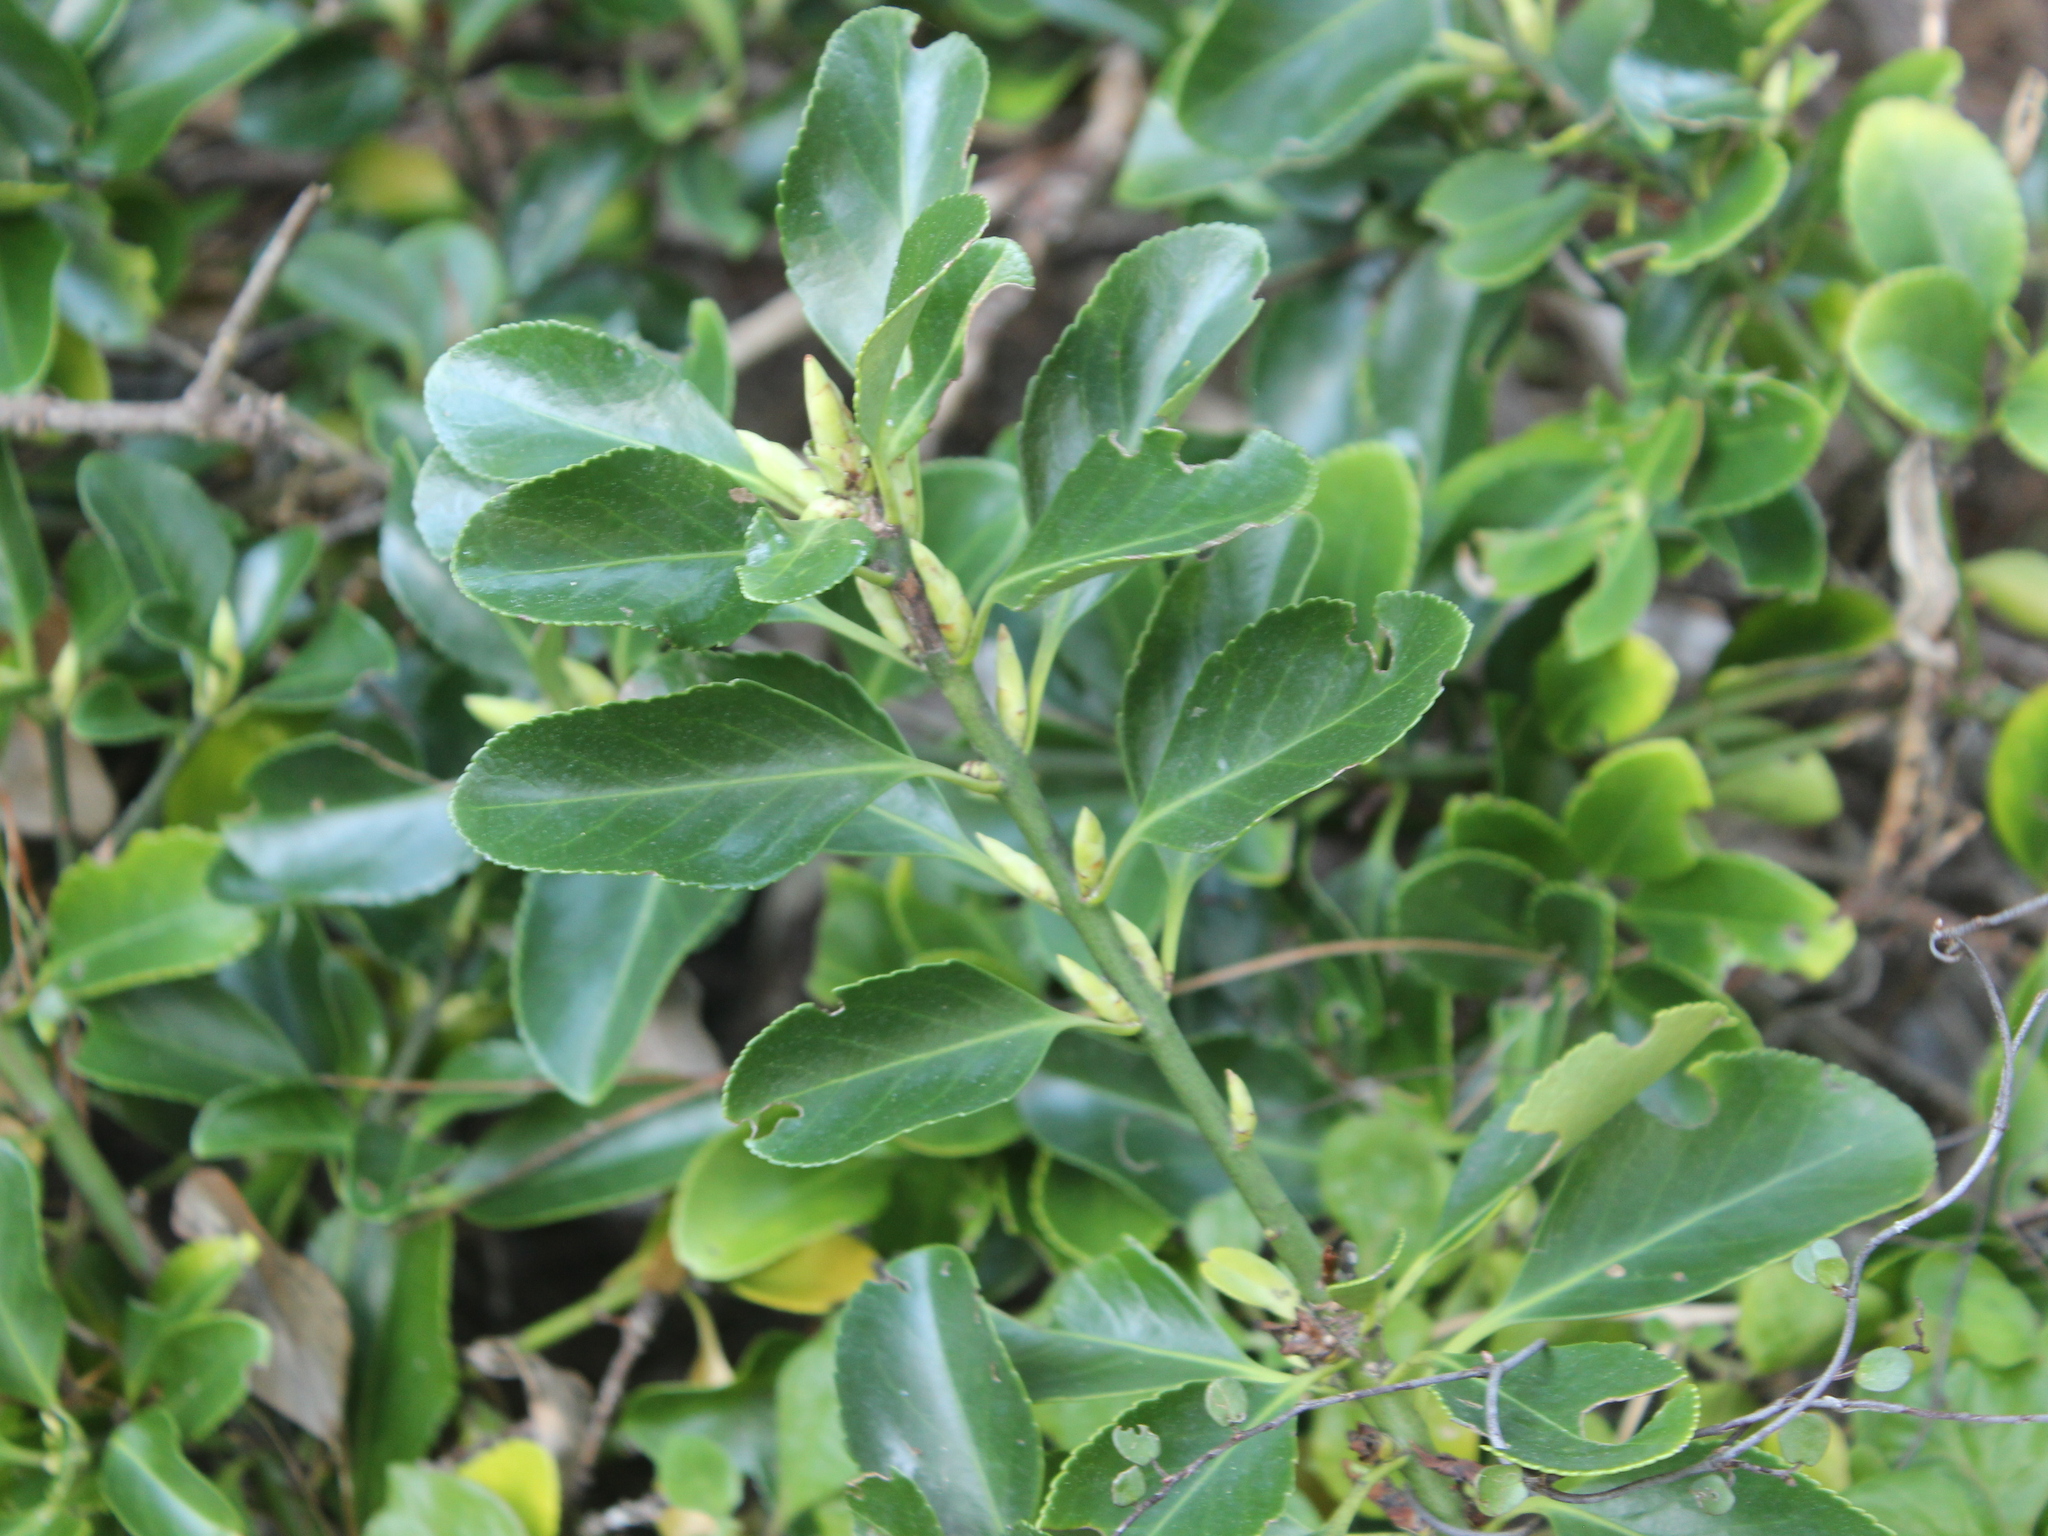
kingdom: Plantae
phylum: Tracheophyta
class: Magnoliopsida
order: Celastrales
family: Celastraceae
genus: Euonymus
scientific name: Euonymus japonicus
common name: Japanese spindletree
